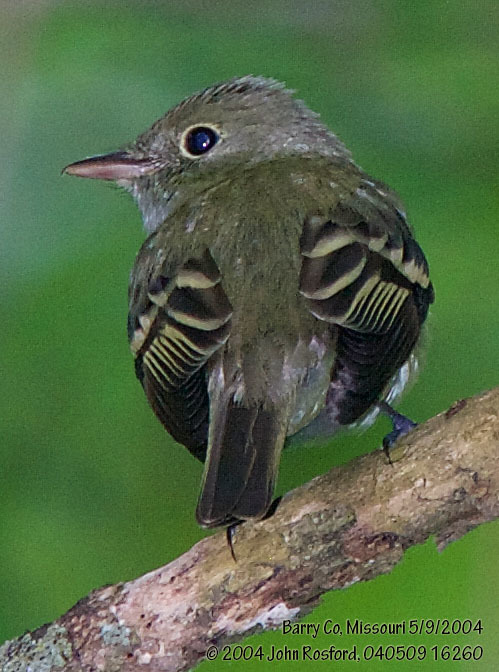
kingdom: Animalia
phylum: Chordata
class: Aves
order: Passeriformes
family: Tyrannidae
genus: Empidonax
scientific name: Empidonax virescens
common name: Acadian flycatcher
